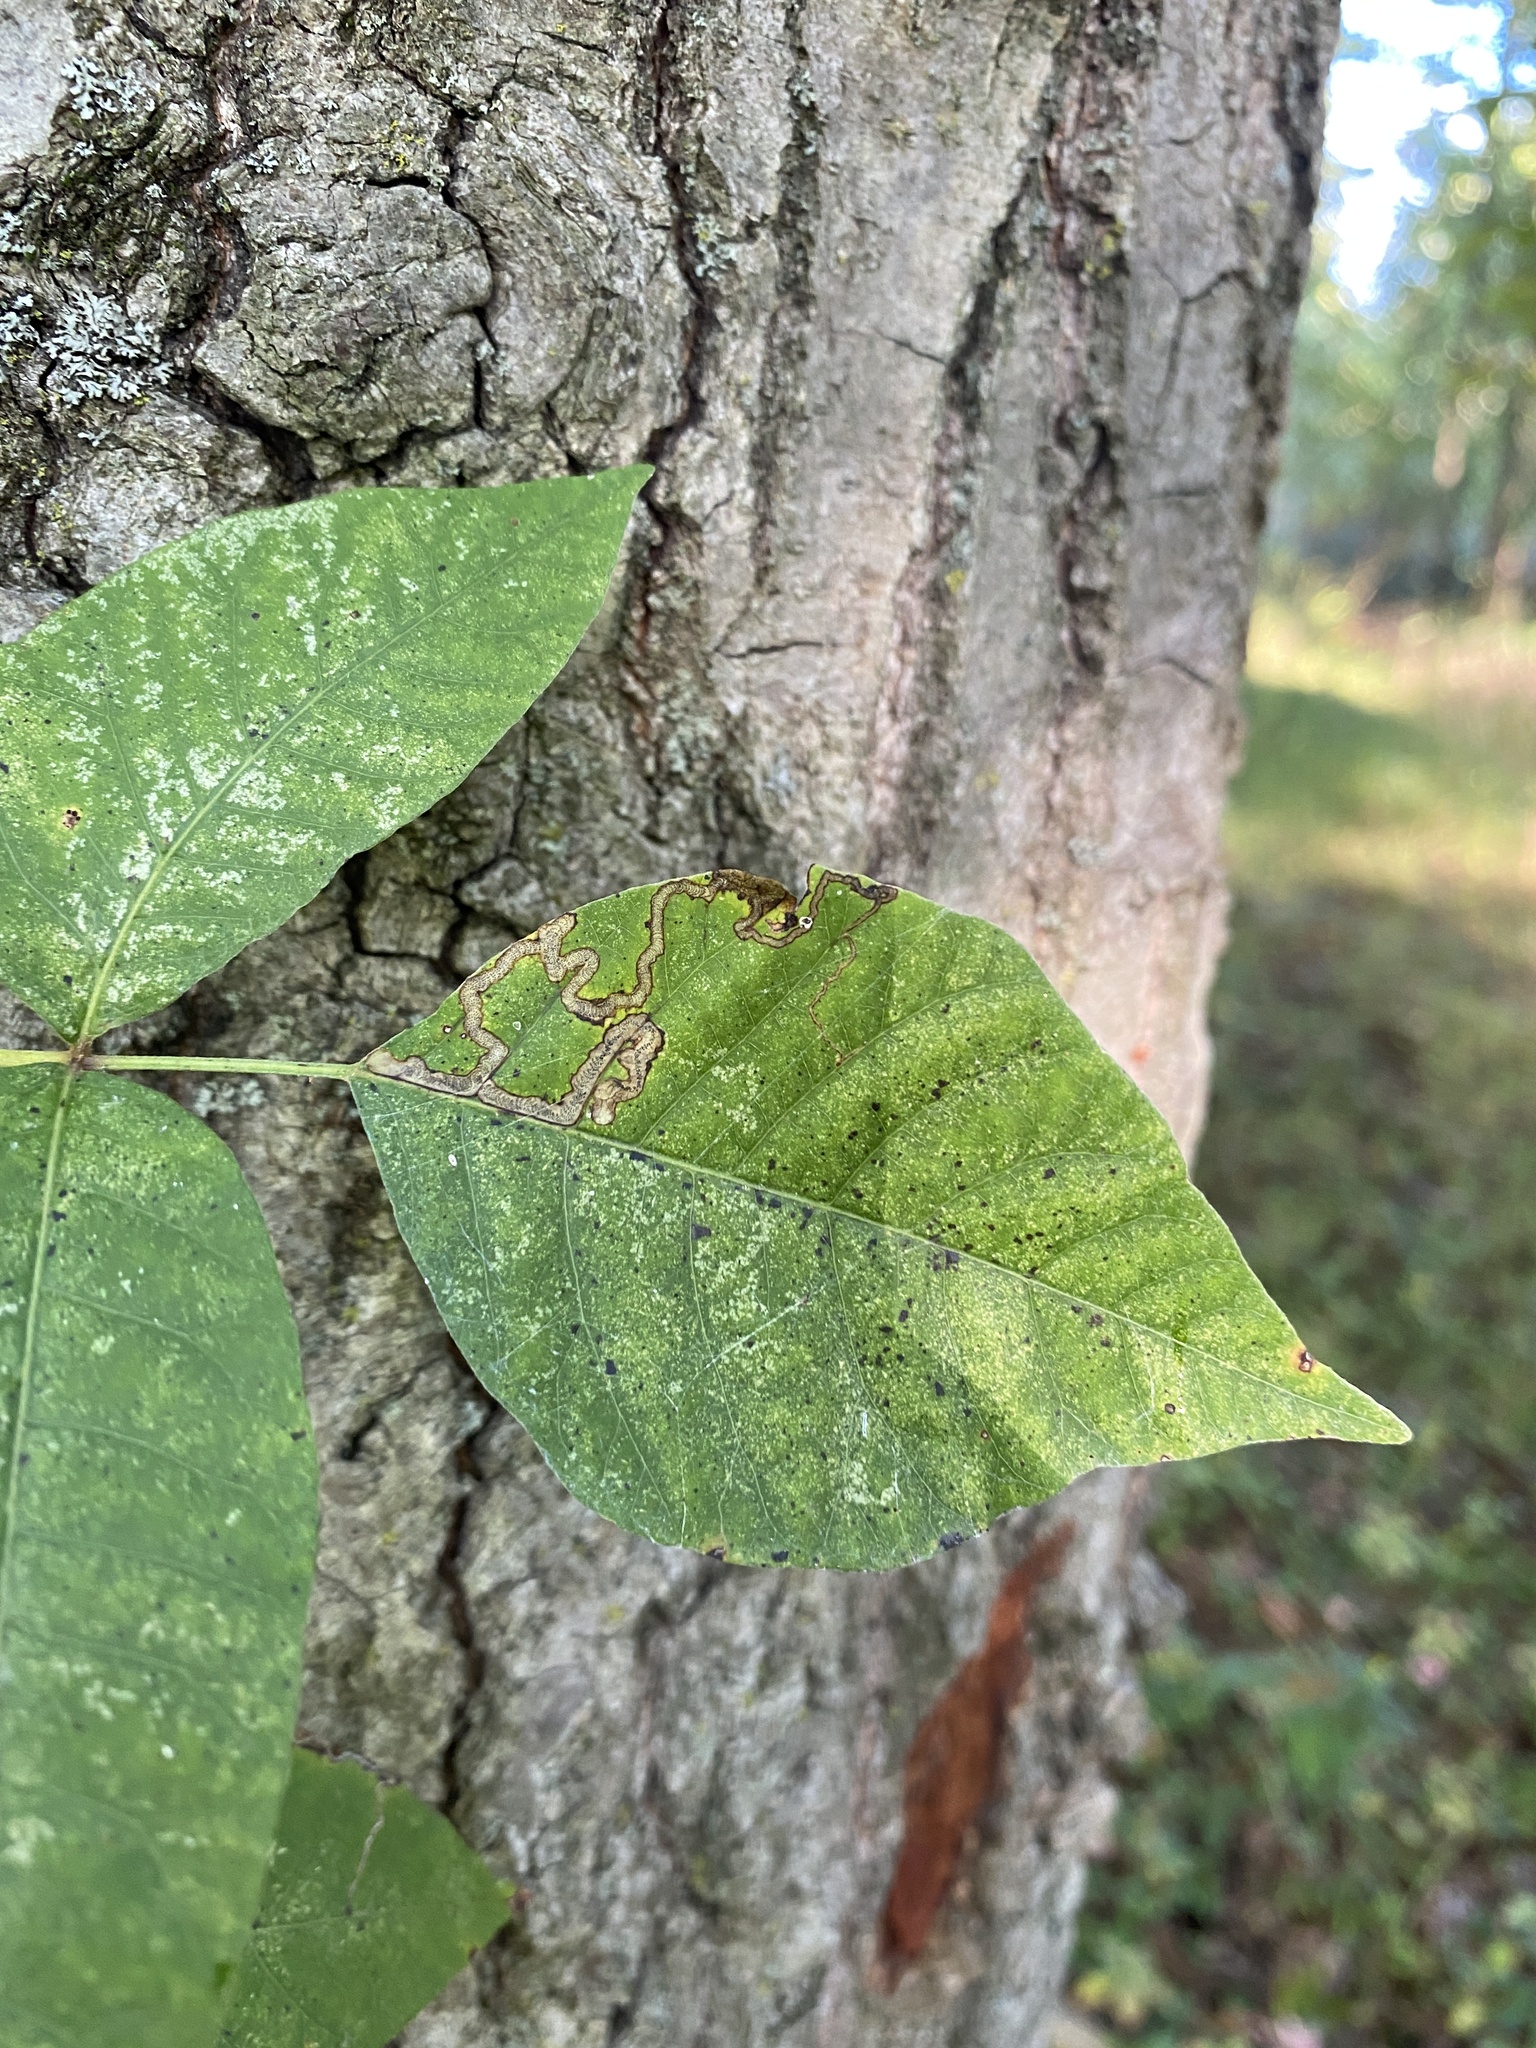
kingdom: Animalia
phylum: Arthropoda
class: Insecta
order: Lepidoptera
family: Nepticulidae
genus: Stigmella
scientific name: Stigmella rhoifoliella
